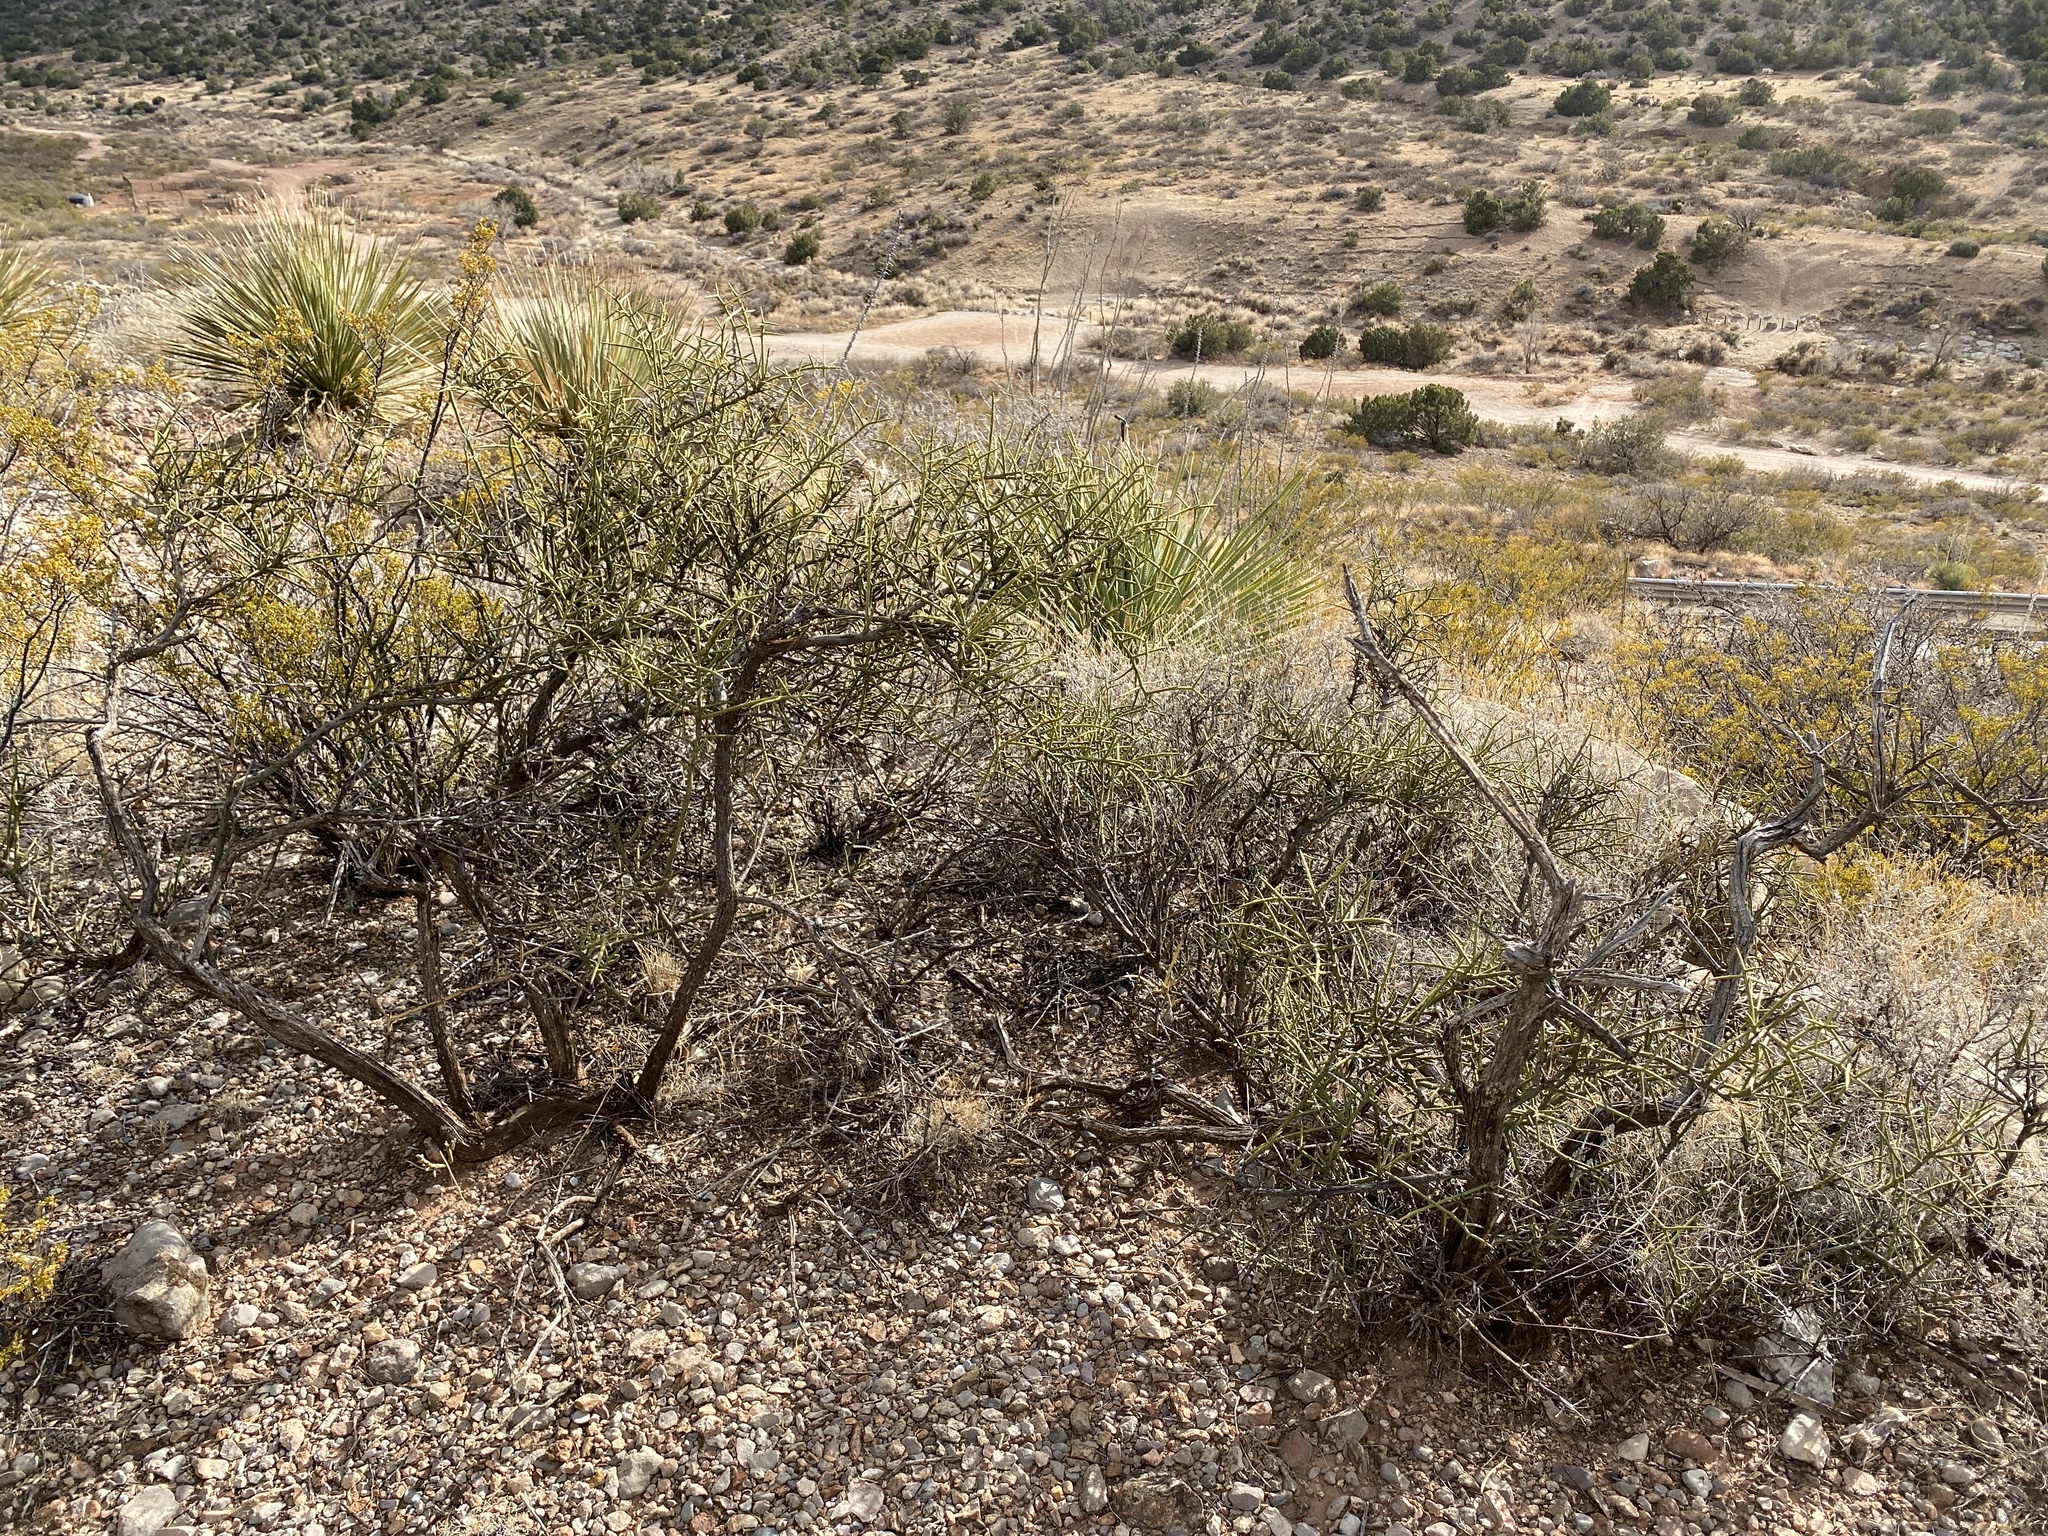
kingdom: Plantae
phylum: Tracheophyta
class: Magnoliopsida
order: Brassicales
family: Koeberliniaceae
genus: Koeberlinia
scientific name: Koeberlinia spinosa
